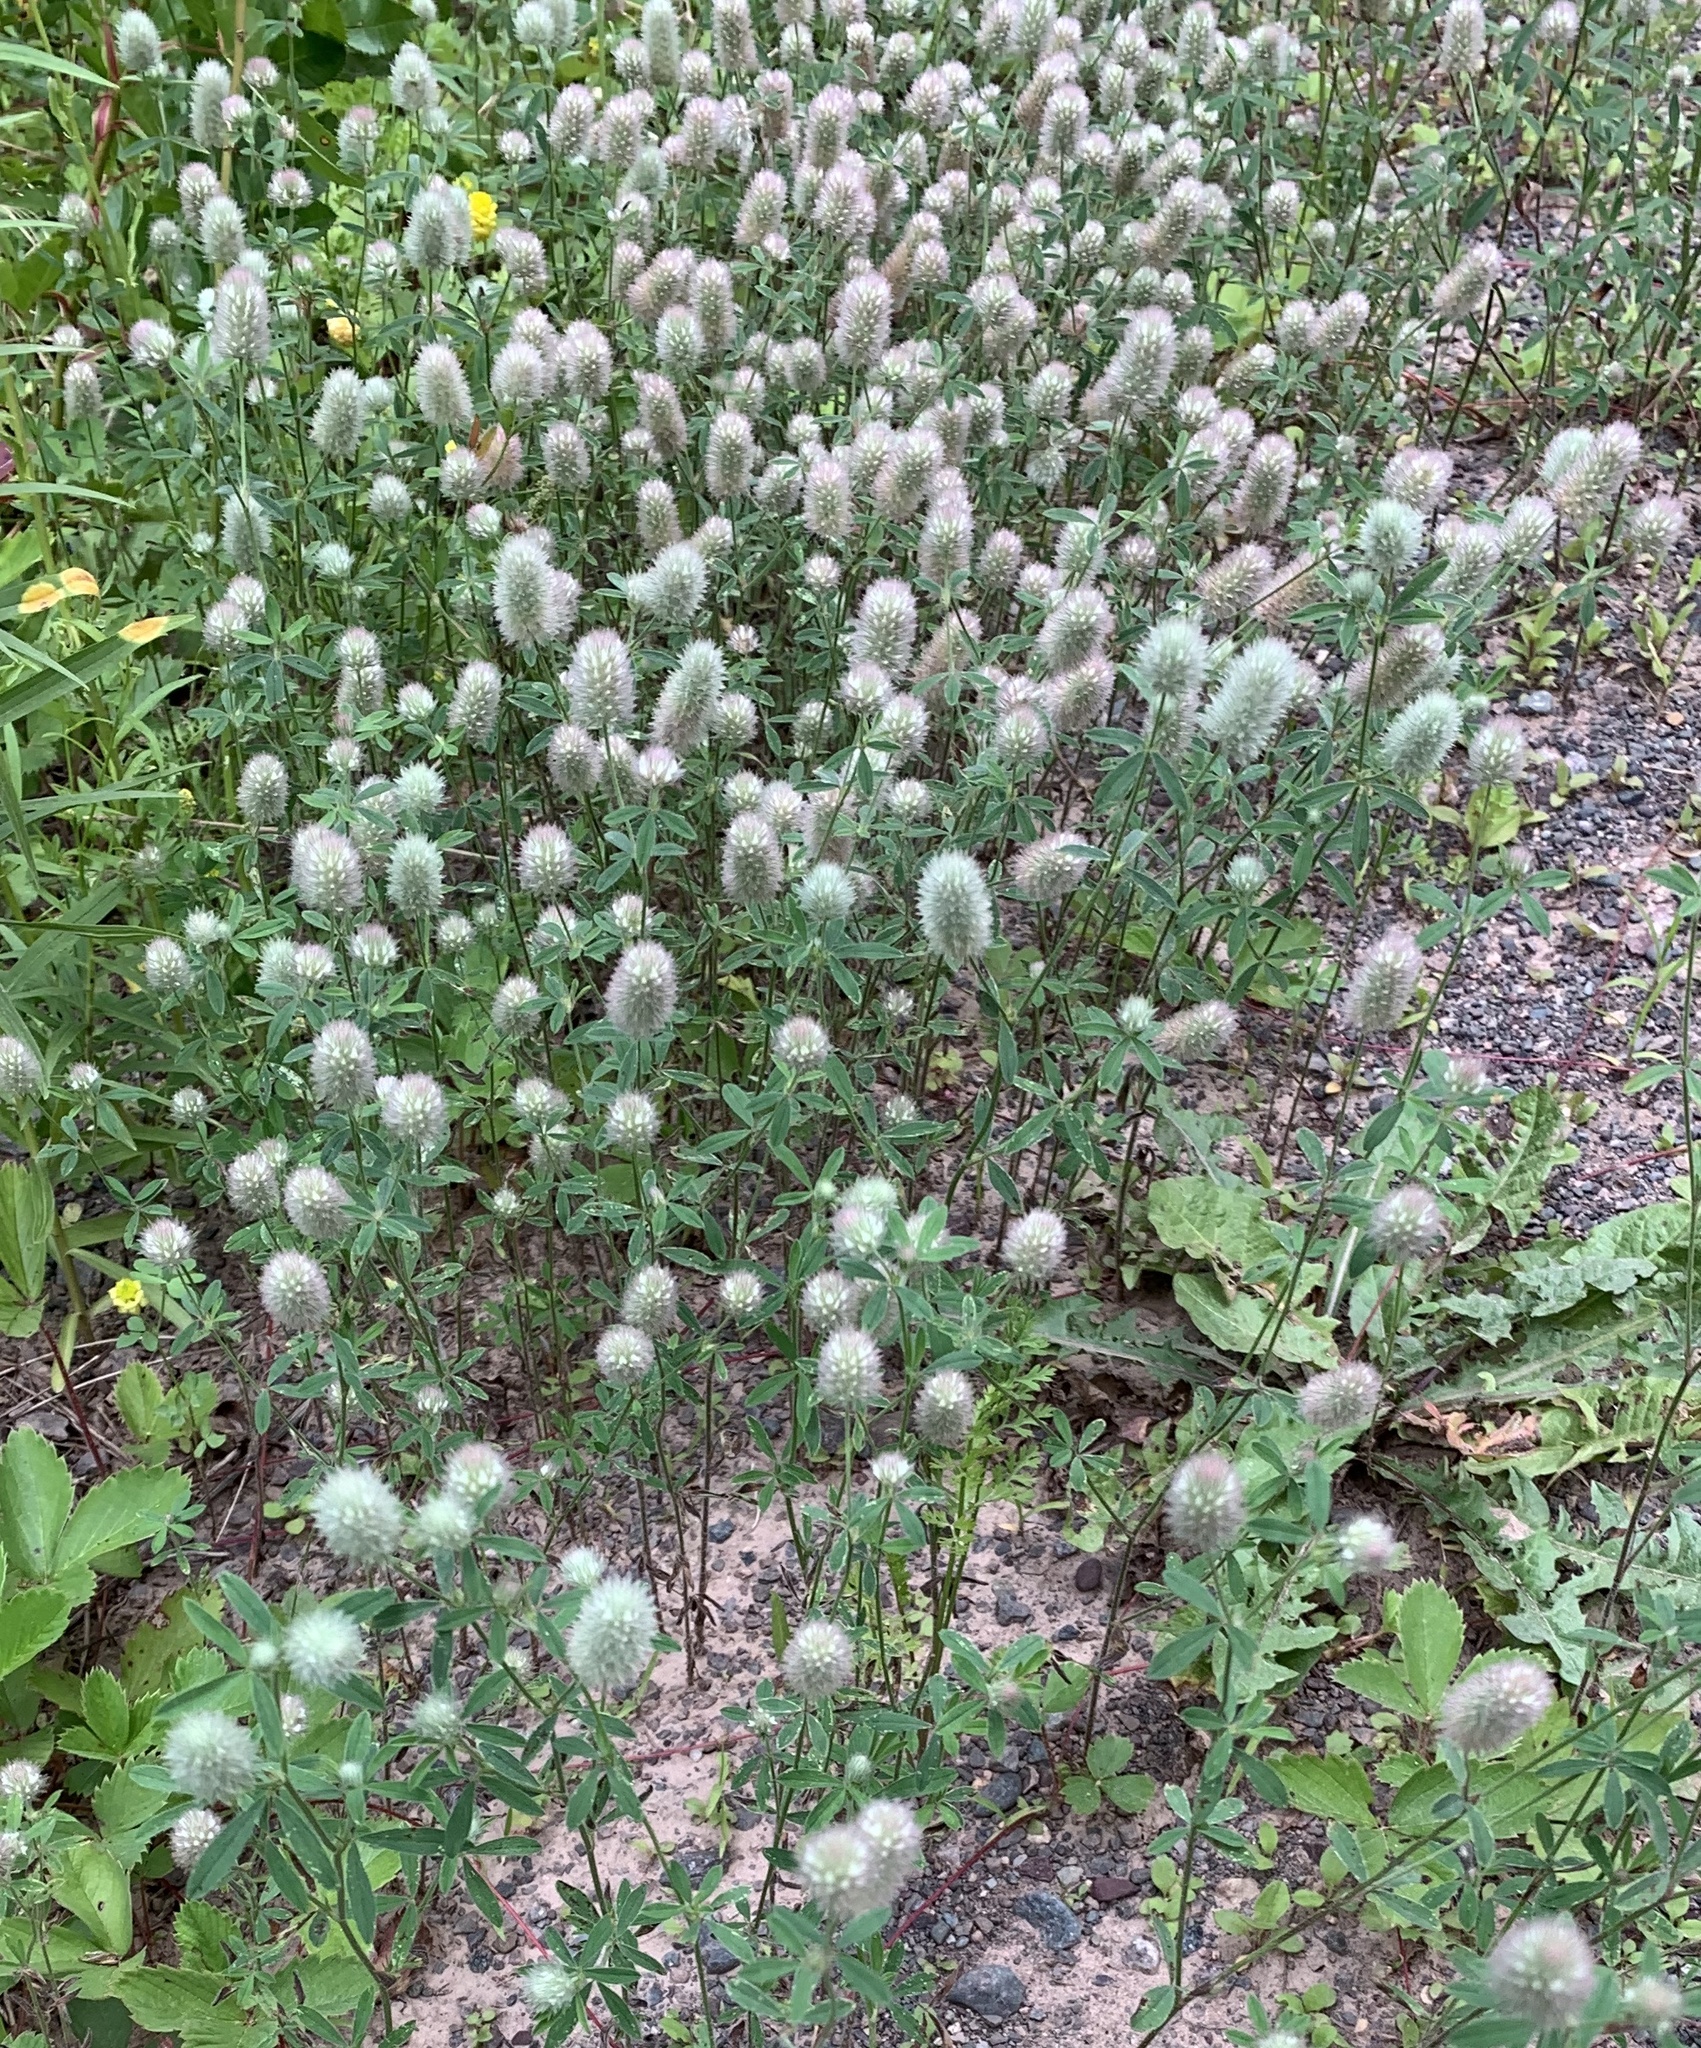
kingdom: Plantae
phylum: Tracheophyta
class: Magnoliopsida
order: Fabales
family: Fabaceae
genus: Trifolium
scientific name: Trifolium arvense
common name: Hare's-foot clover
